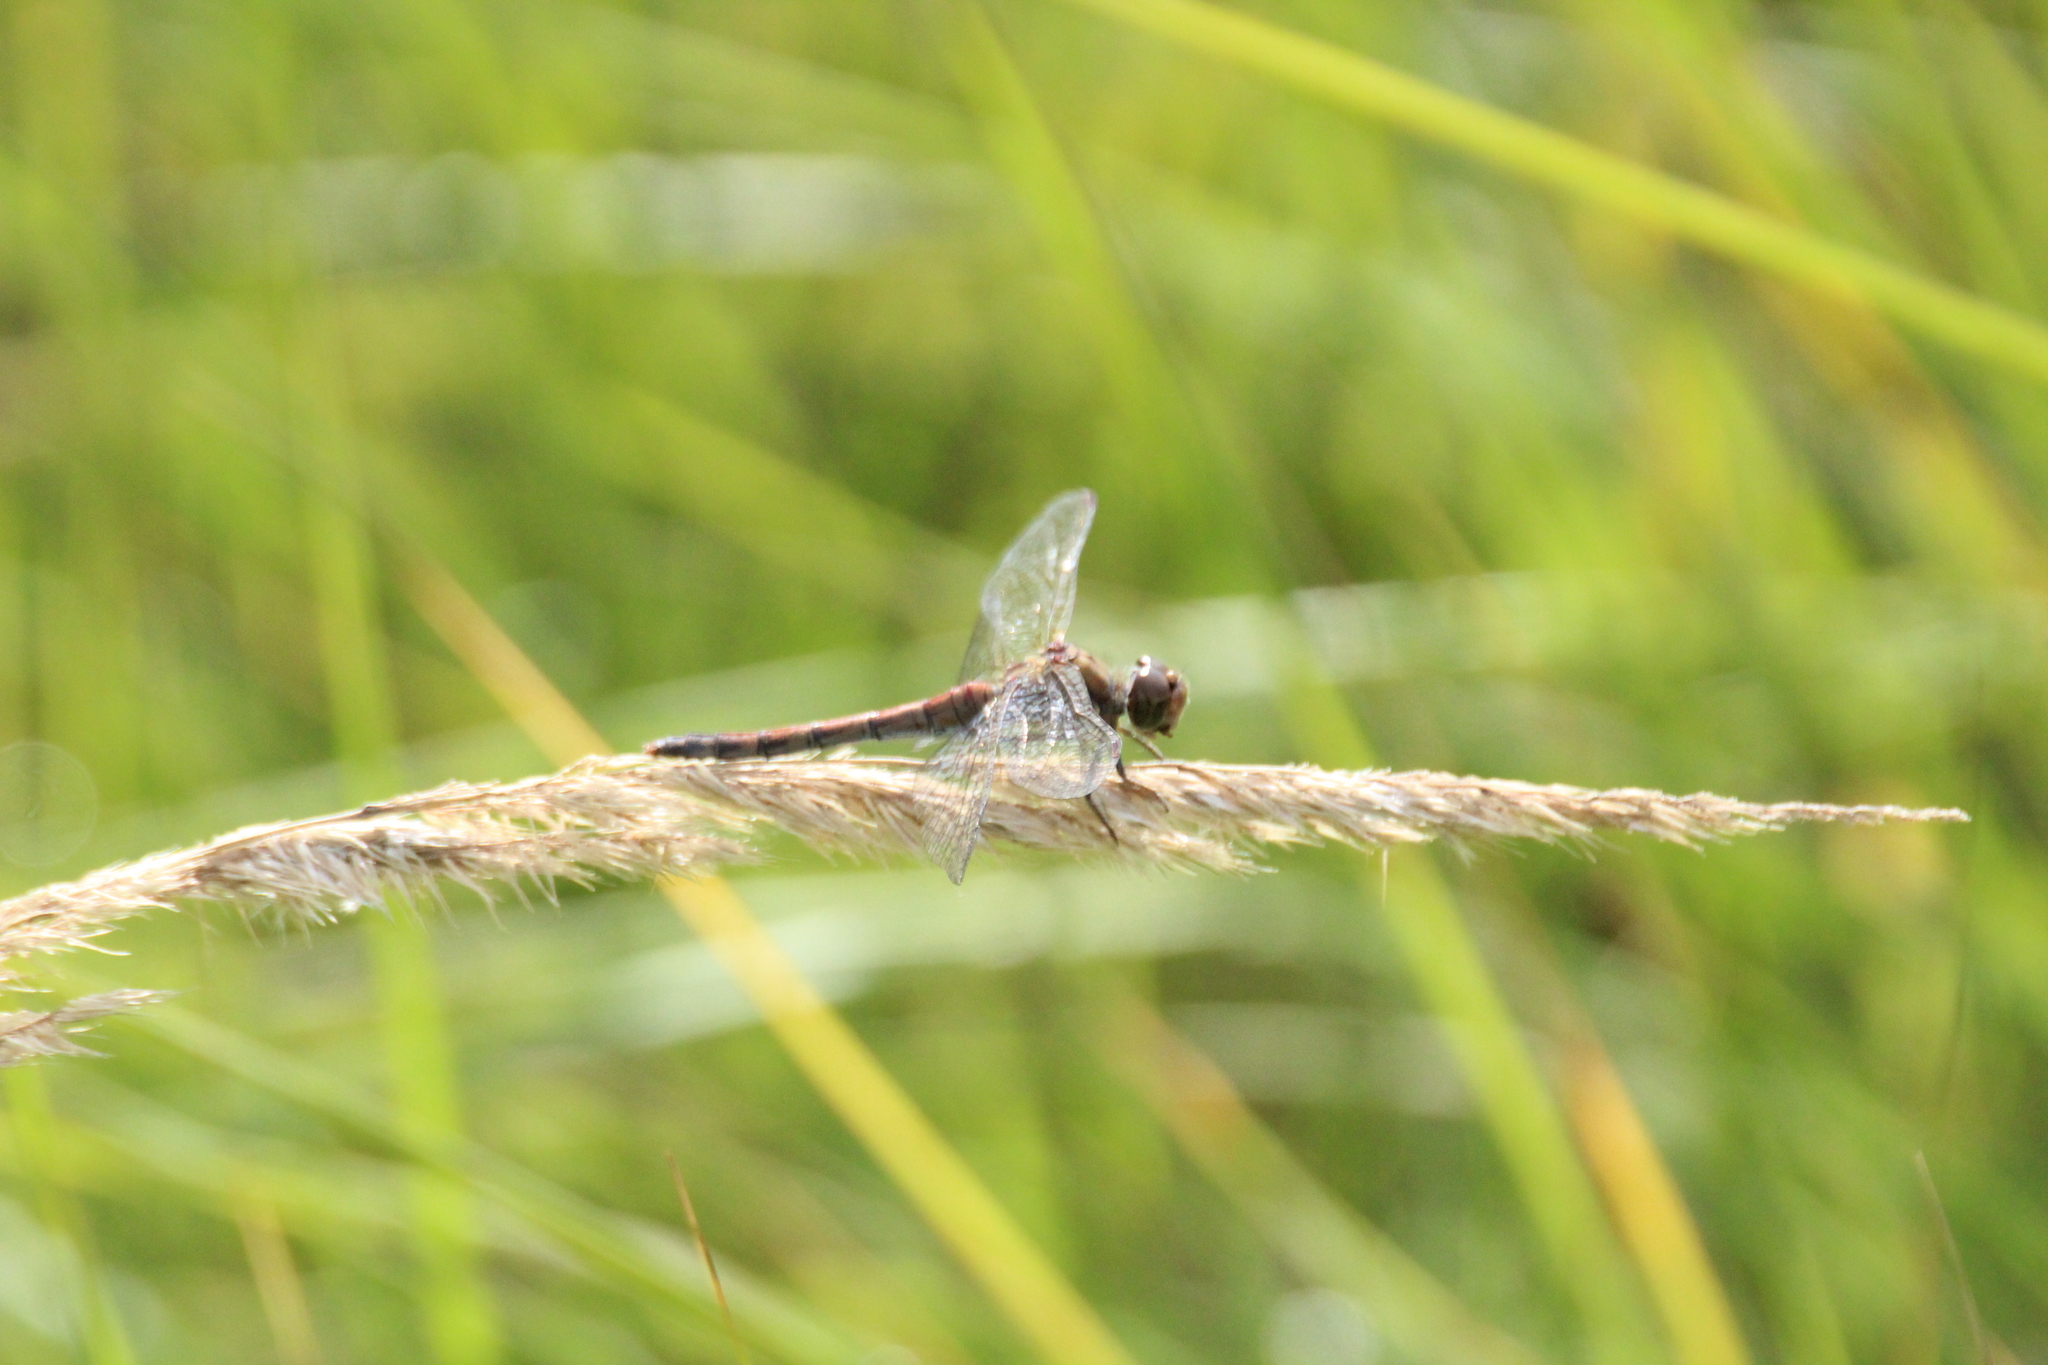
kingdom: Animalia
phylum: Arthropoda
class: Insecta
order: Odonata
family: Libellulidae
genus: Sympetrum
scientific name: Sympetrum striolatum
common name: Common darter
